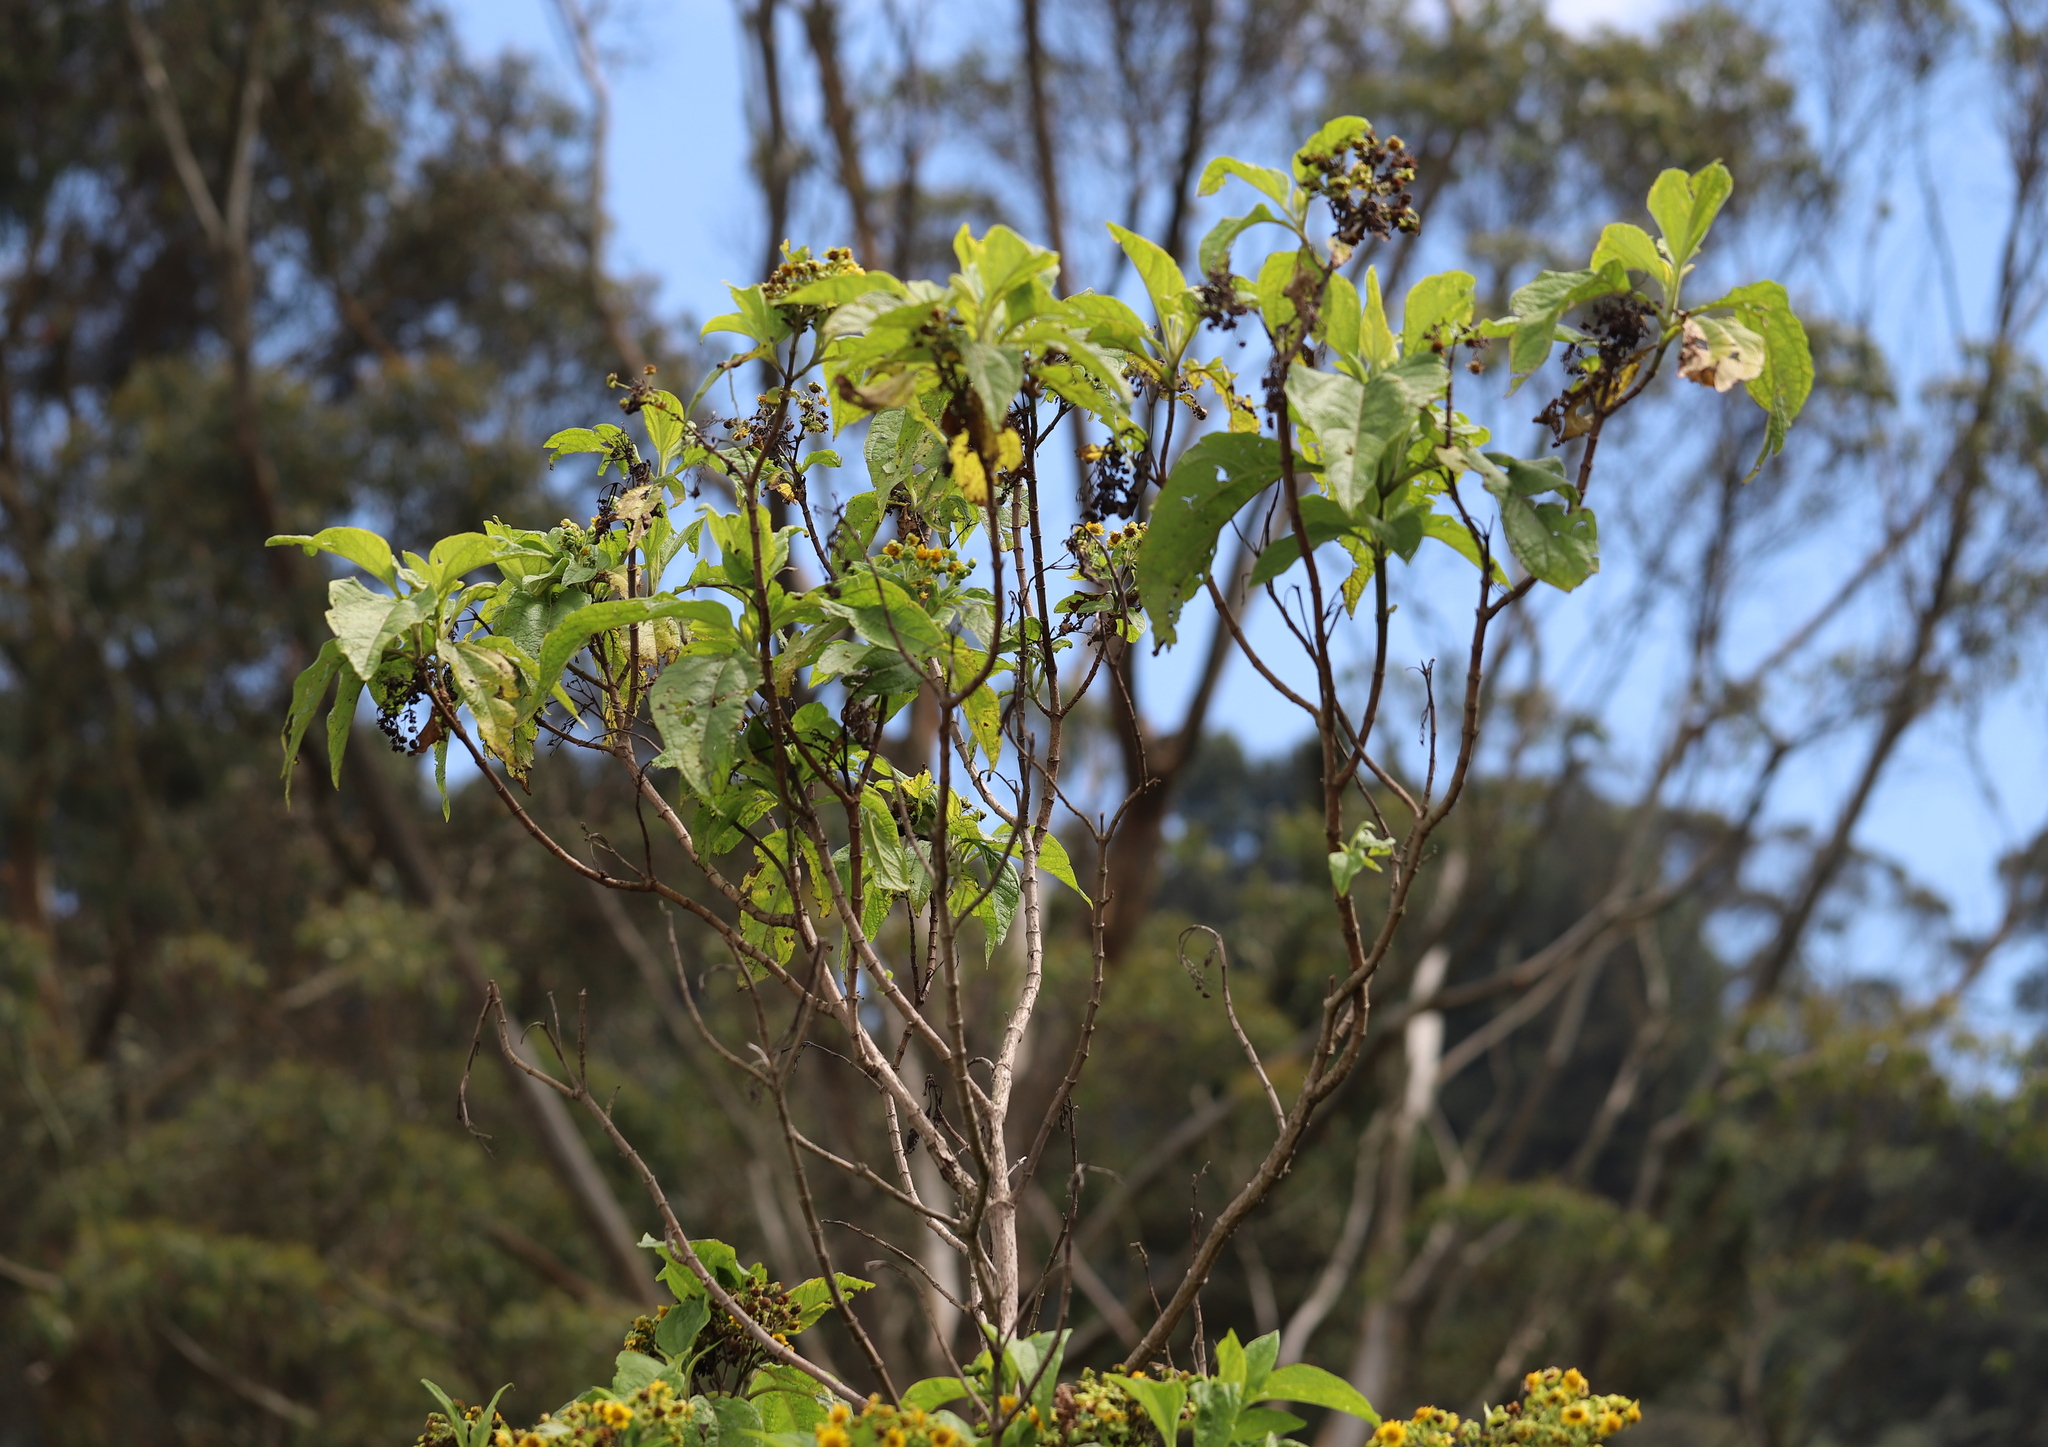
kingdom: Plantae
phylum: Tracheophyta
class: Magnoliopsida
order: Asterales
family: Asteraceae
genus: Smallanthus
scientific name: Smallanthus pyramidalis
